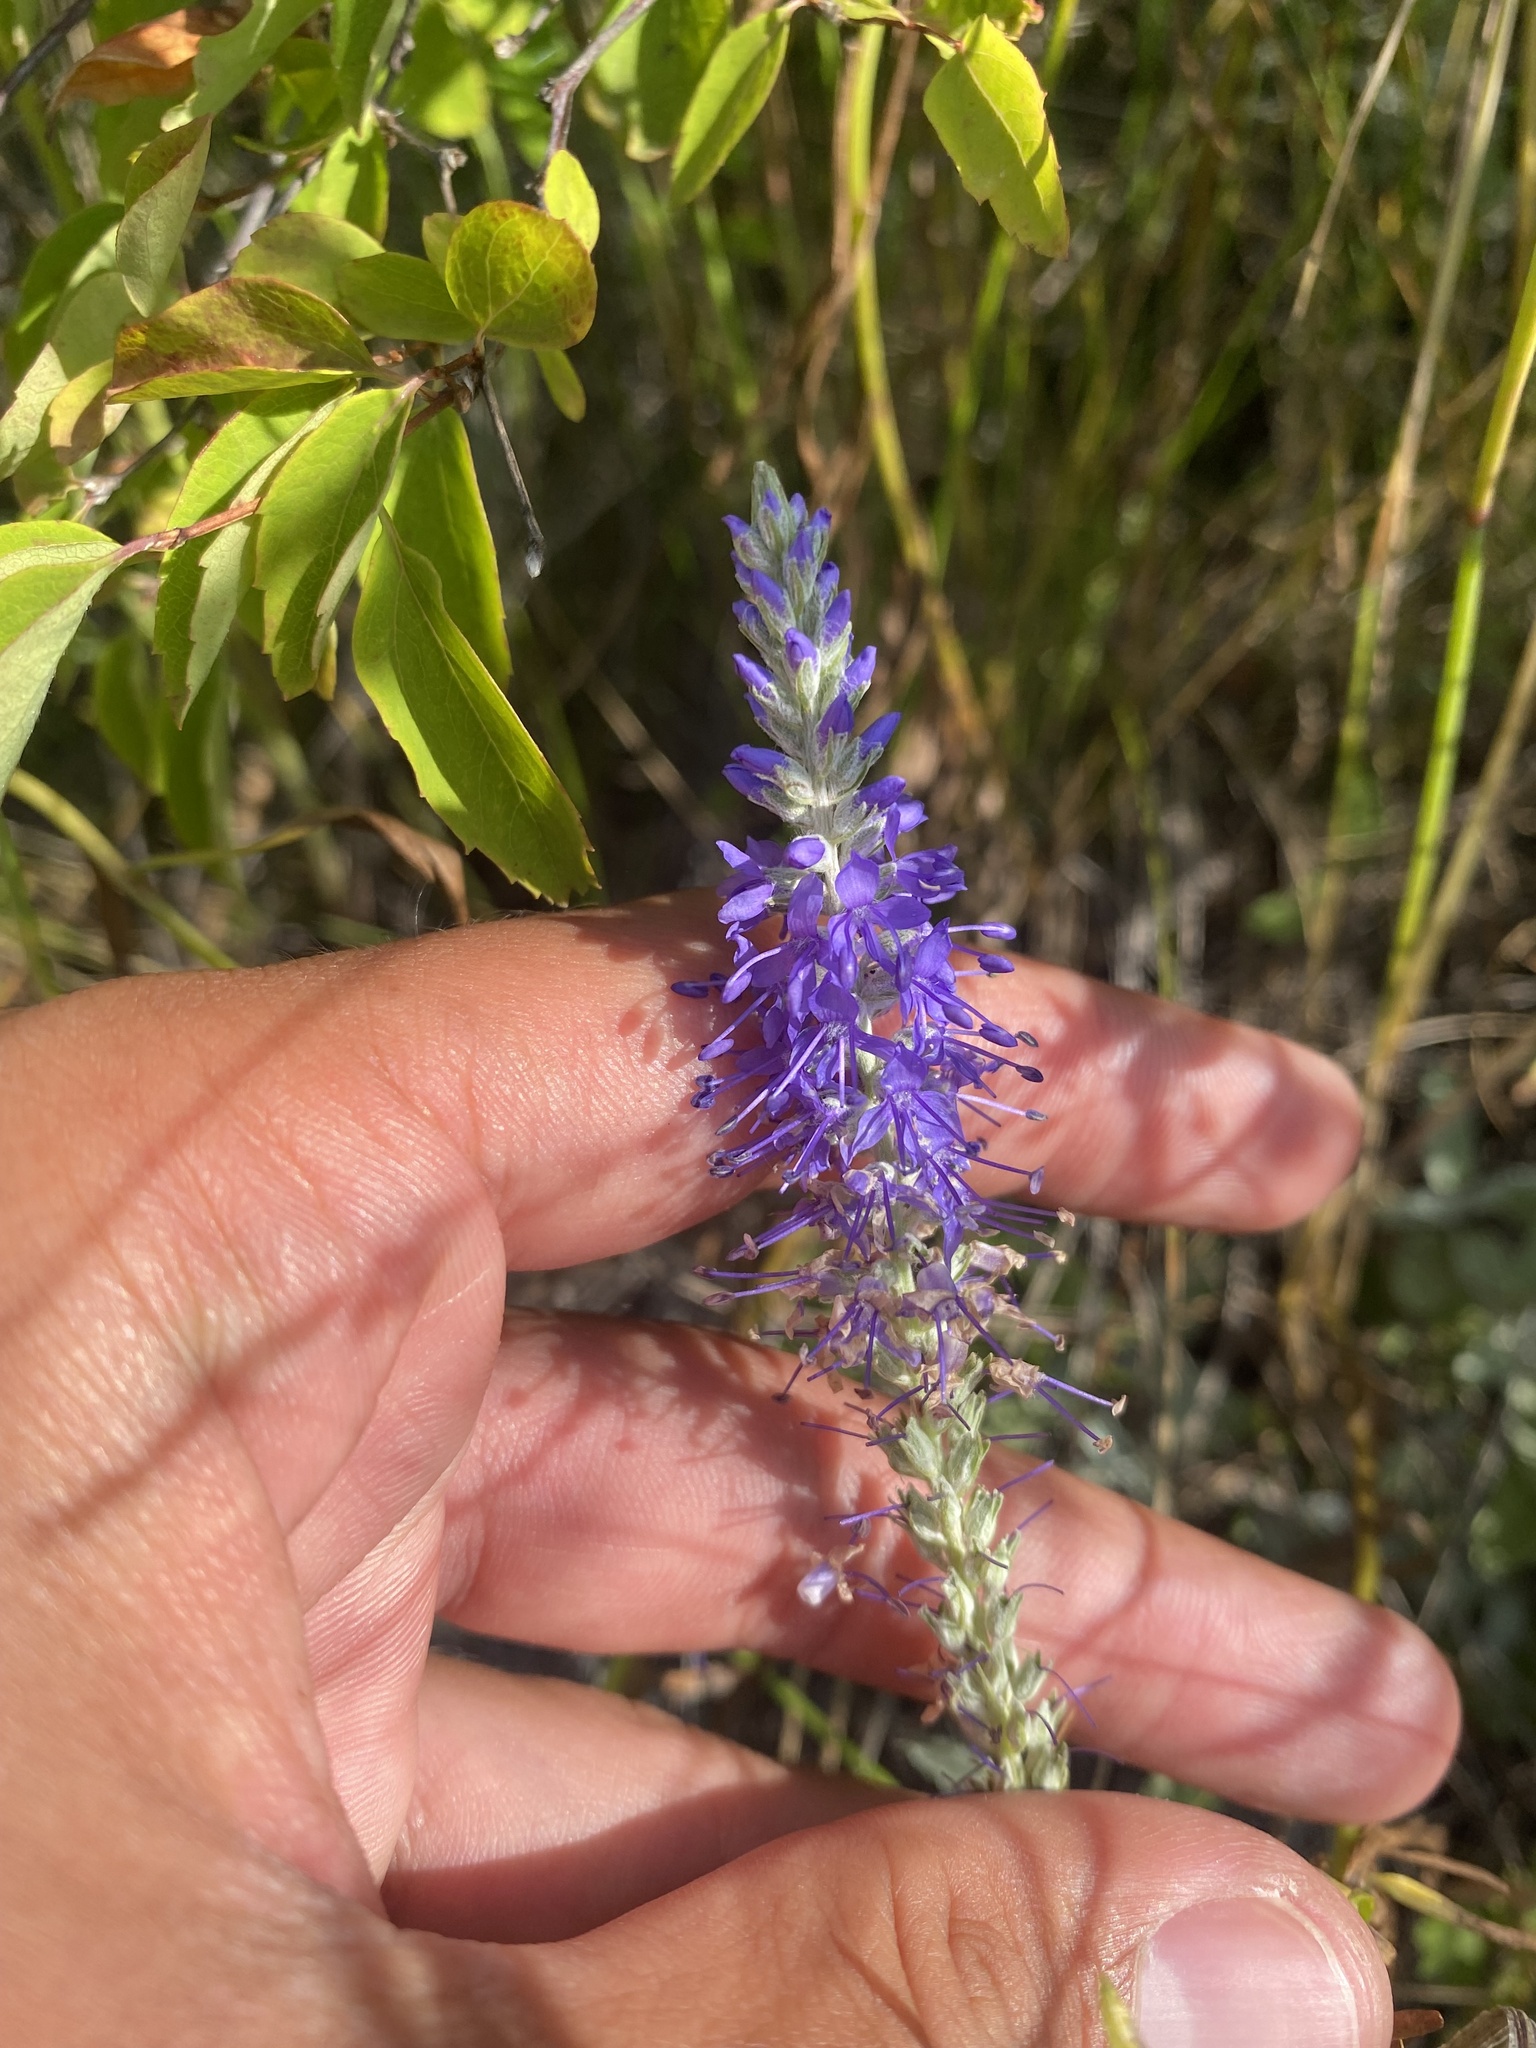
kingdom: Plantae
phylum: Tracheophyta
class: Magnoliopsida
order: Lamiales
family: Plantaginaceae
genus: Veronica
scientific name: Veronica incana
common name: Silver speedwell
